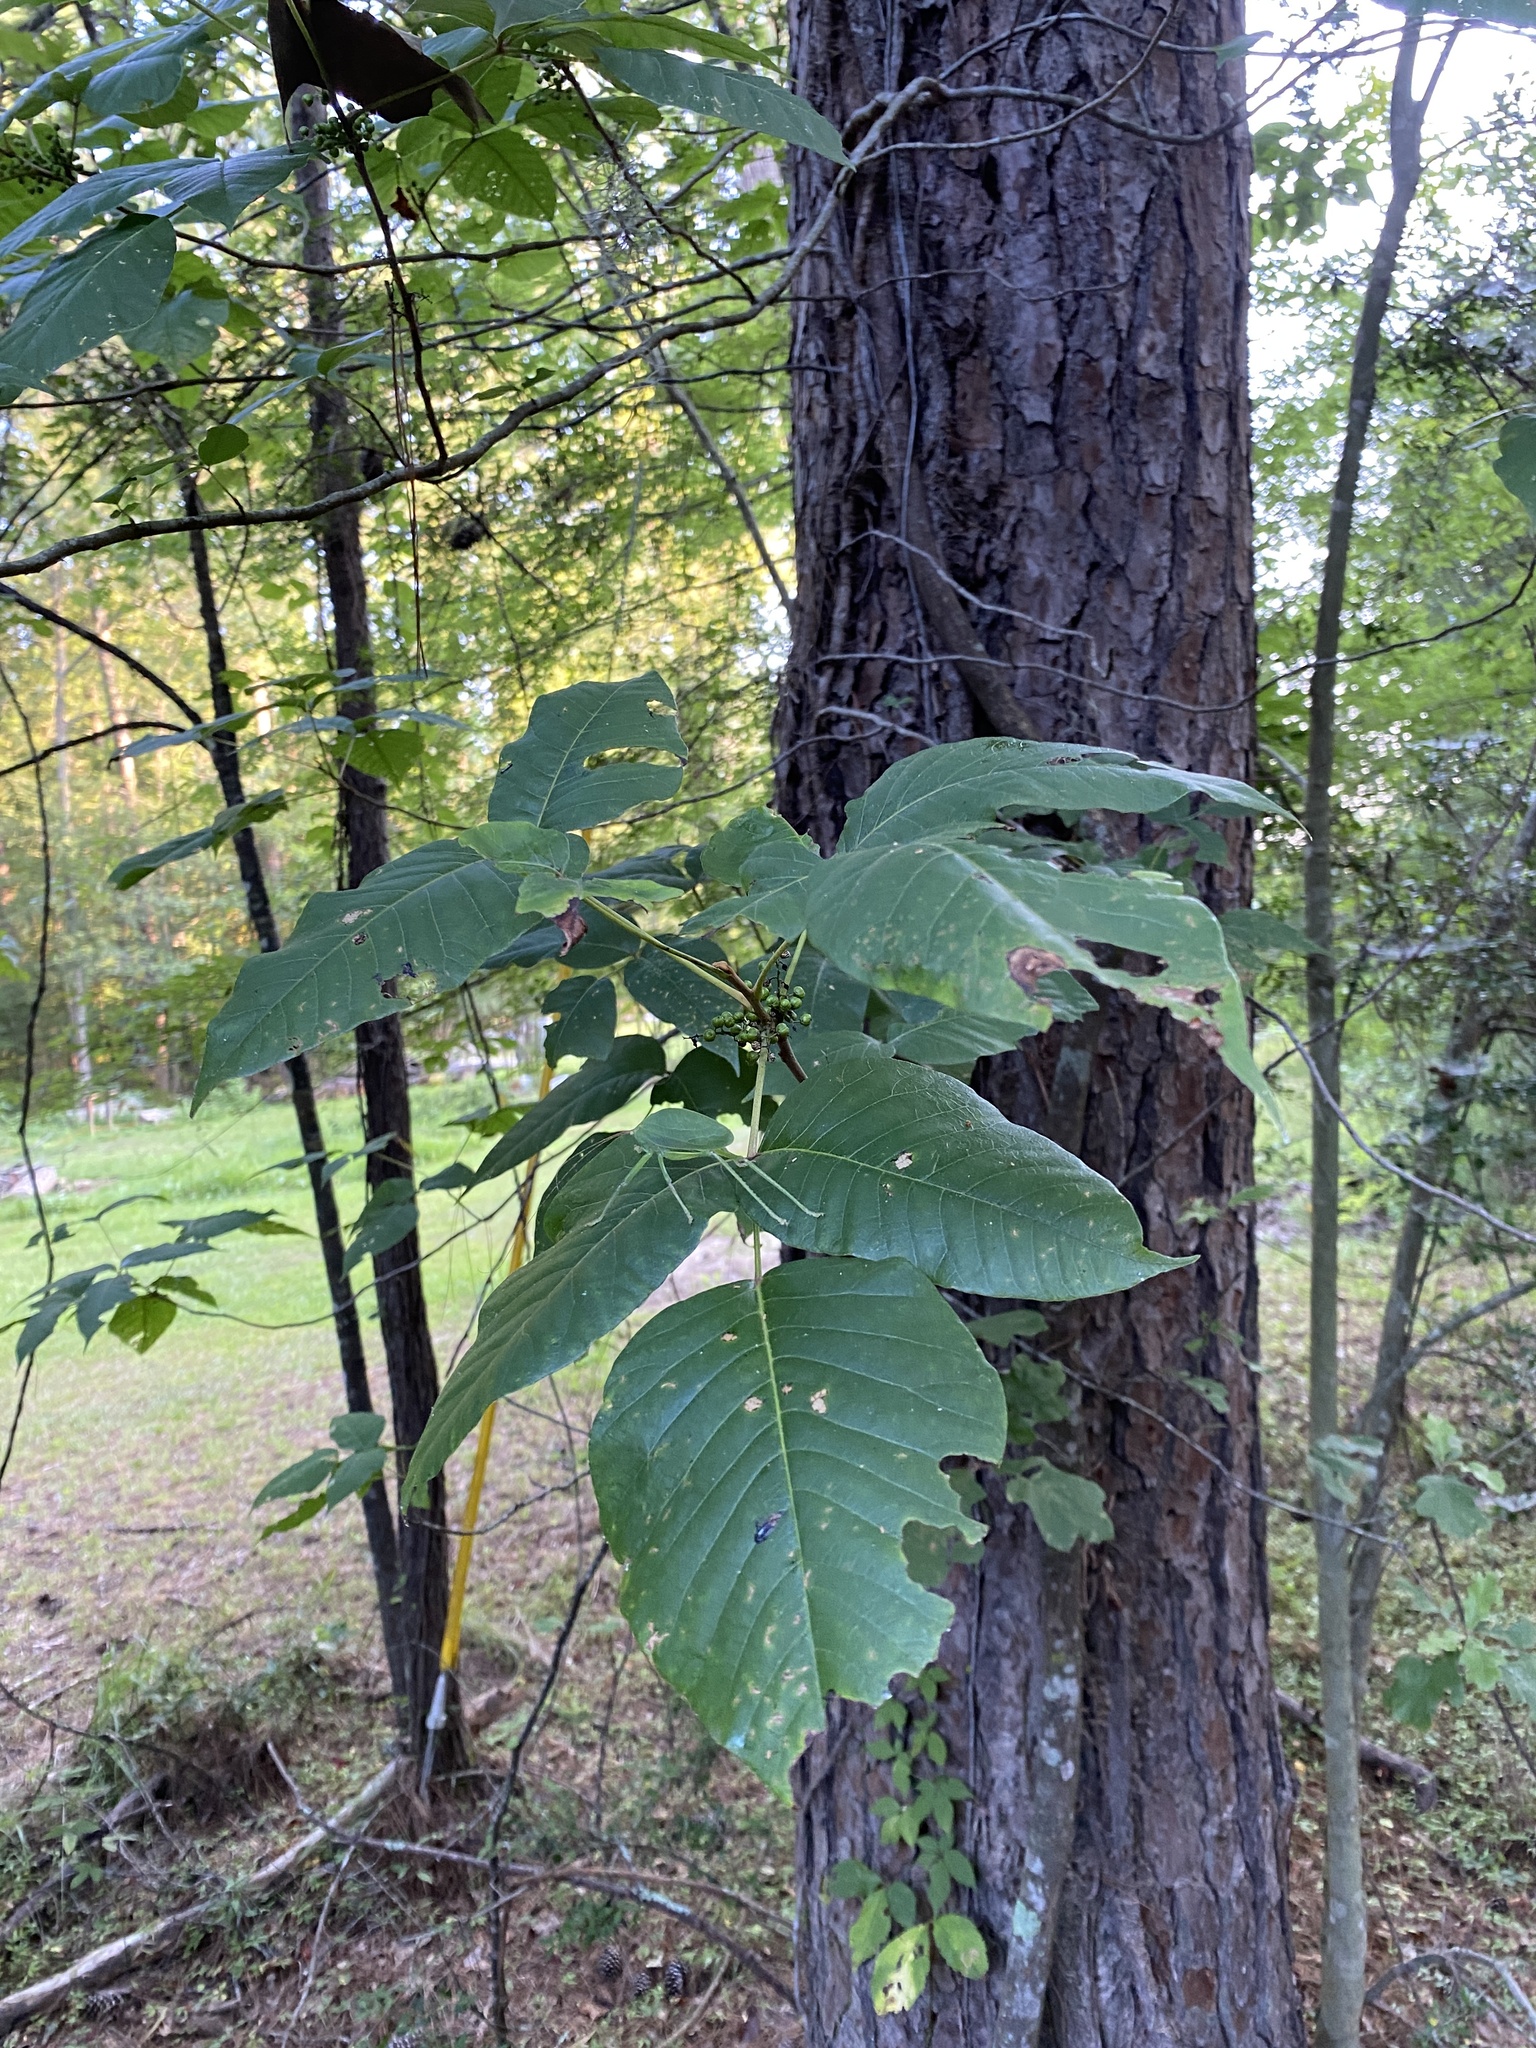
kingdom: Plantae
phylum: Tracheophyta
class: Magnoliopsida
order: Sapindales
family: Anacardiaceae
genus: Toxicodendron
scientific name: Toxicodendron radicans
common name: Poison ivy
